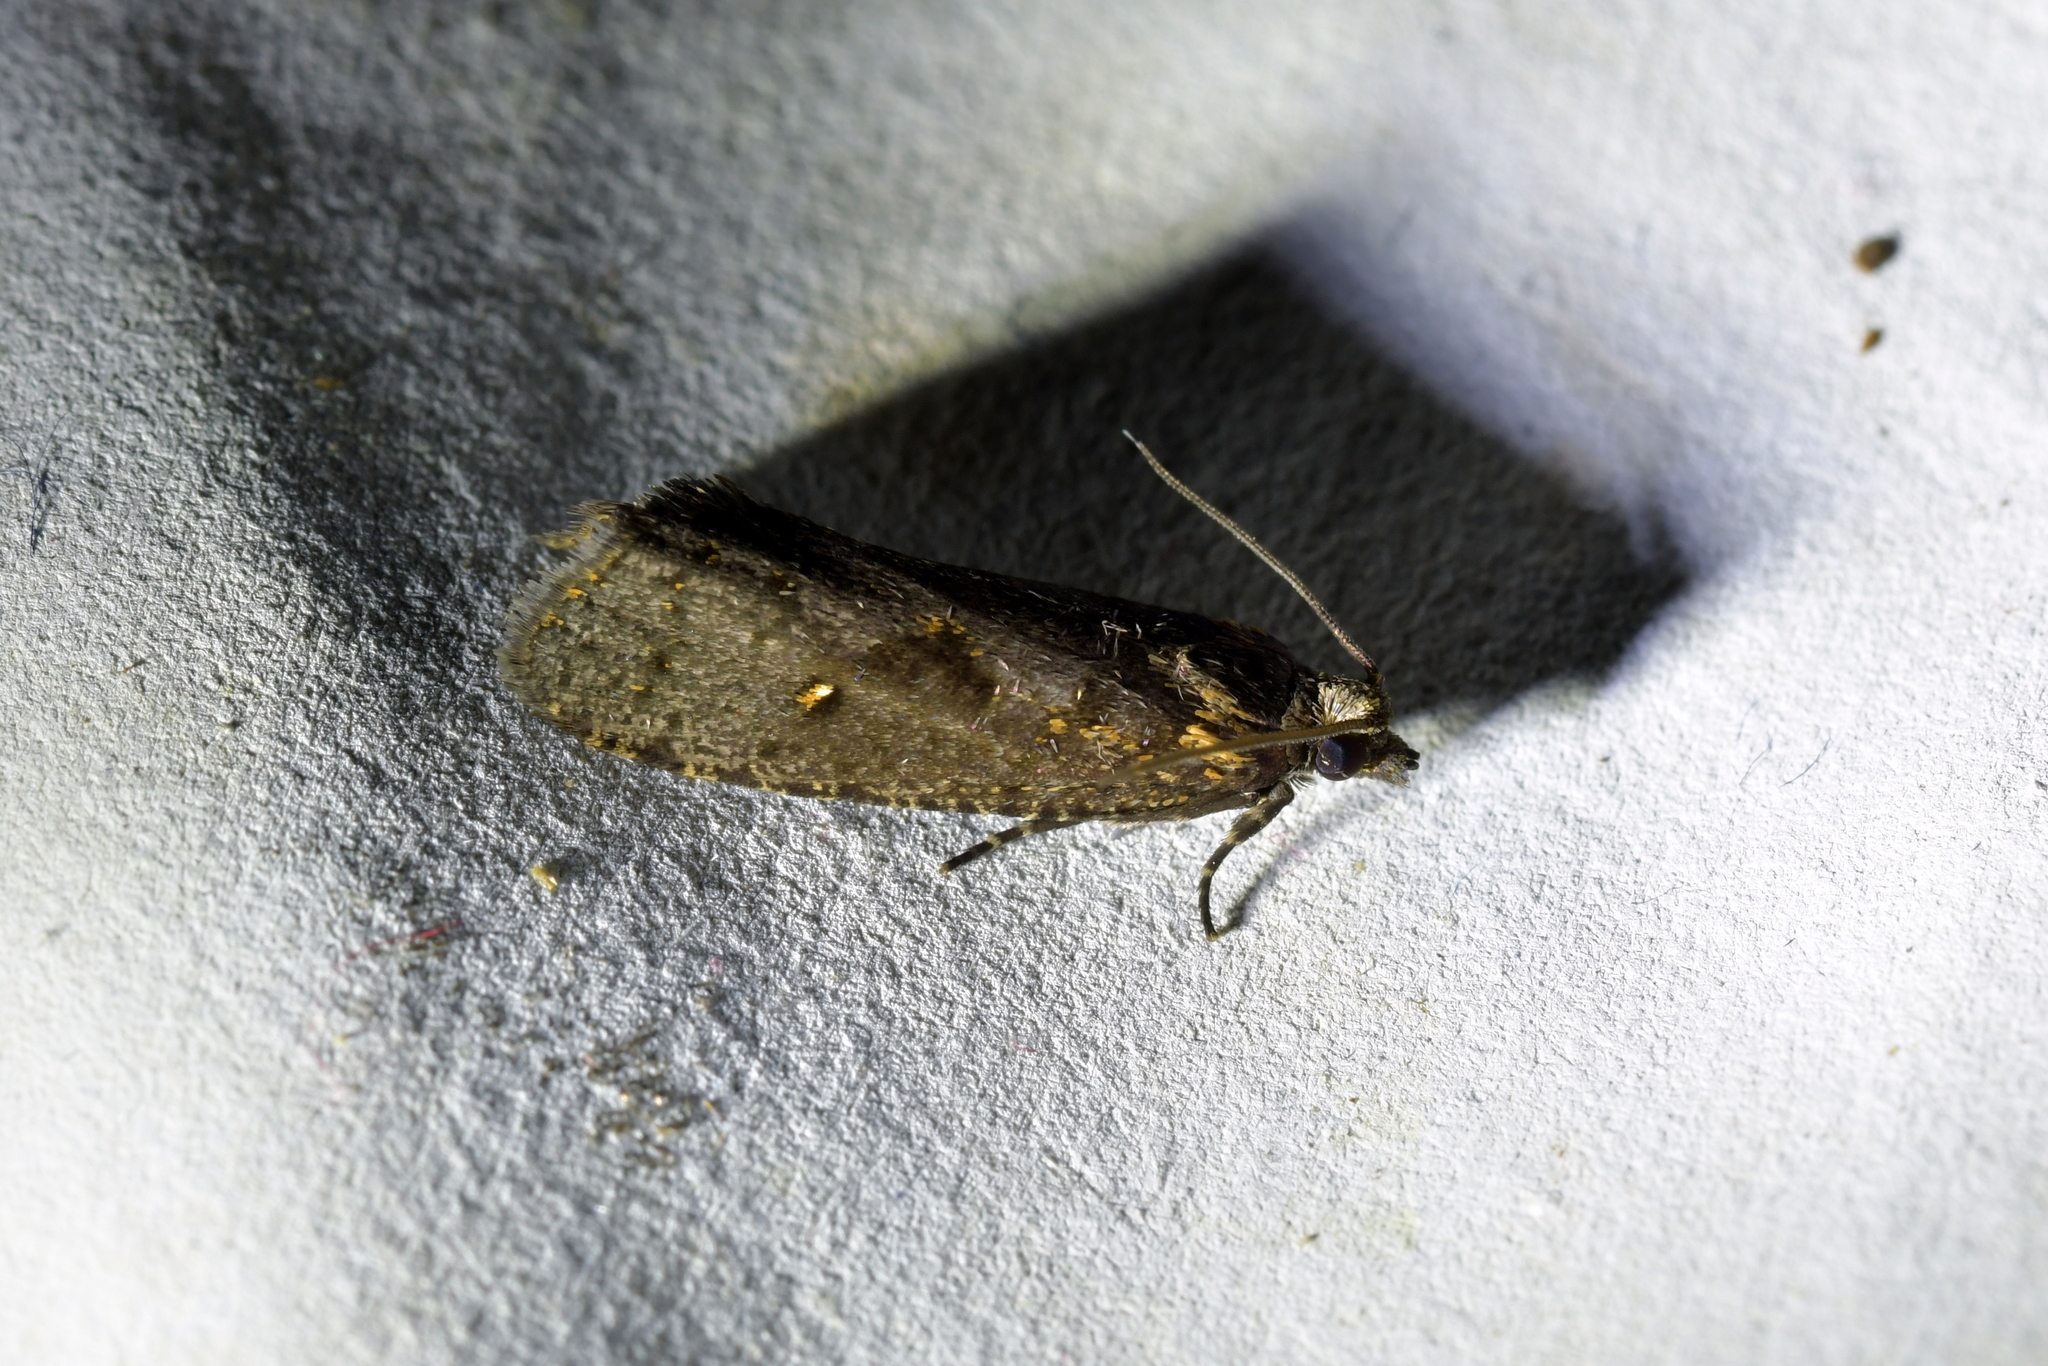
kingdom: Animalia
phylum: Arthropoda
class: Insecta
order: Lepidoptera
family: Tortricidae
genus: Cryptaspasma
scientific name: Cryptaspasma querula
